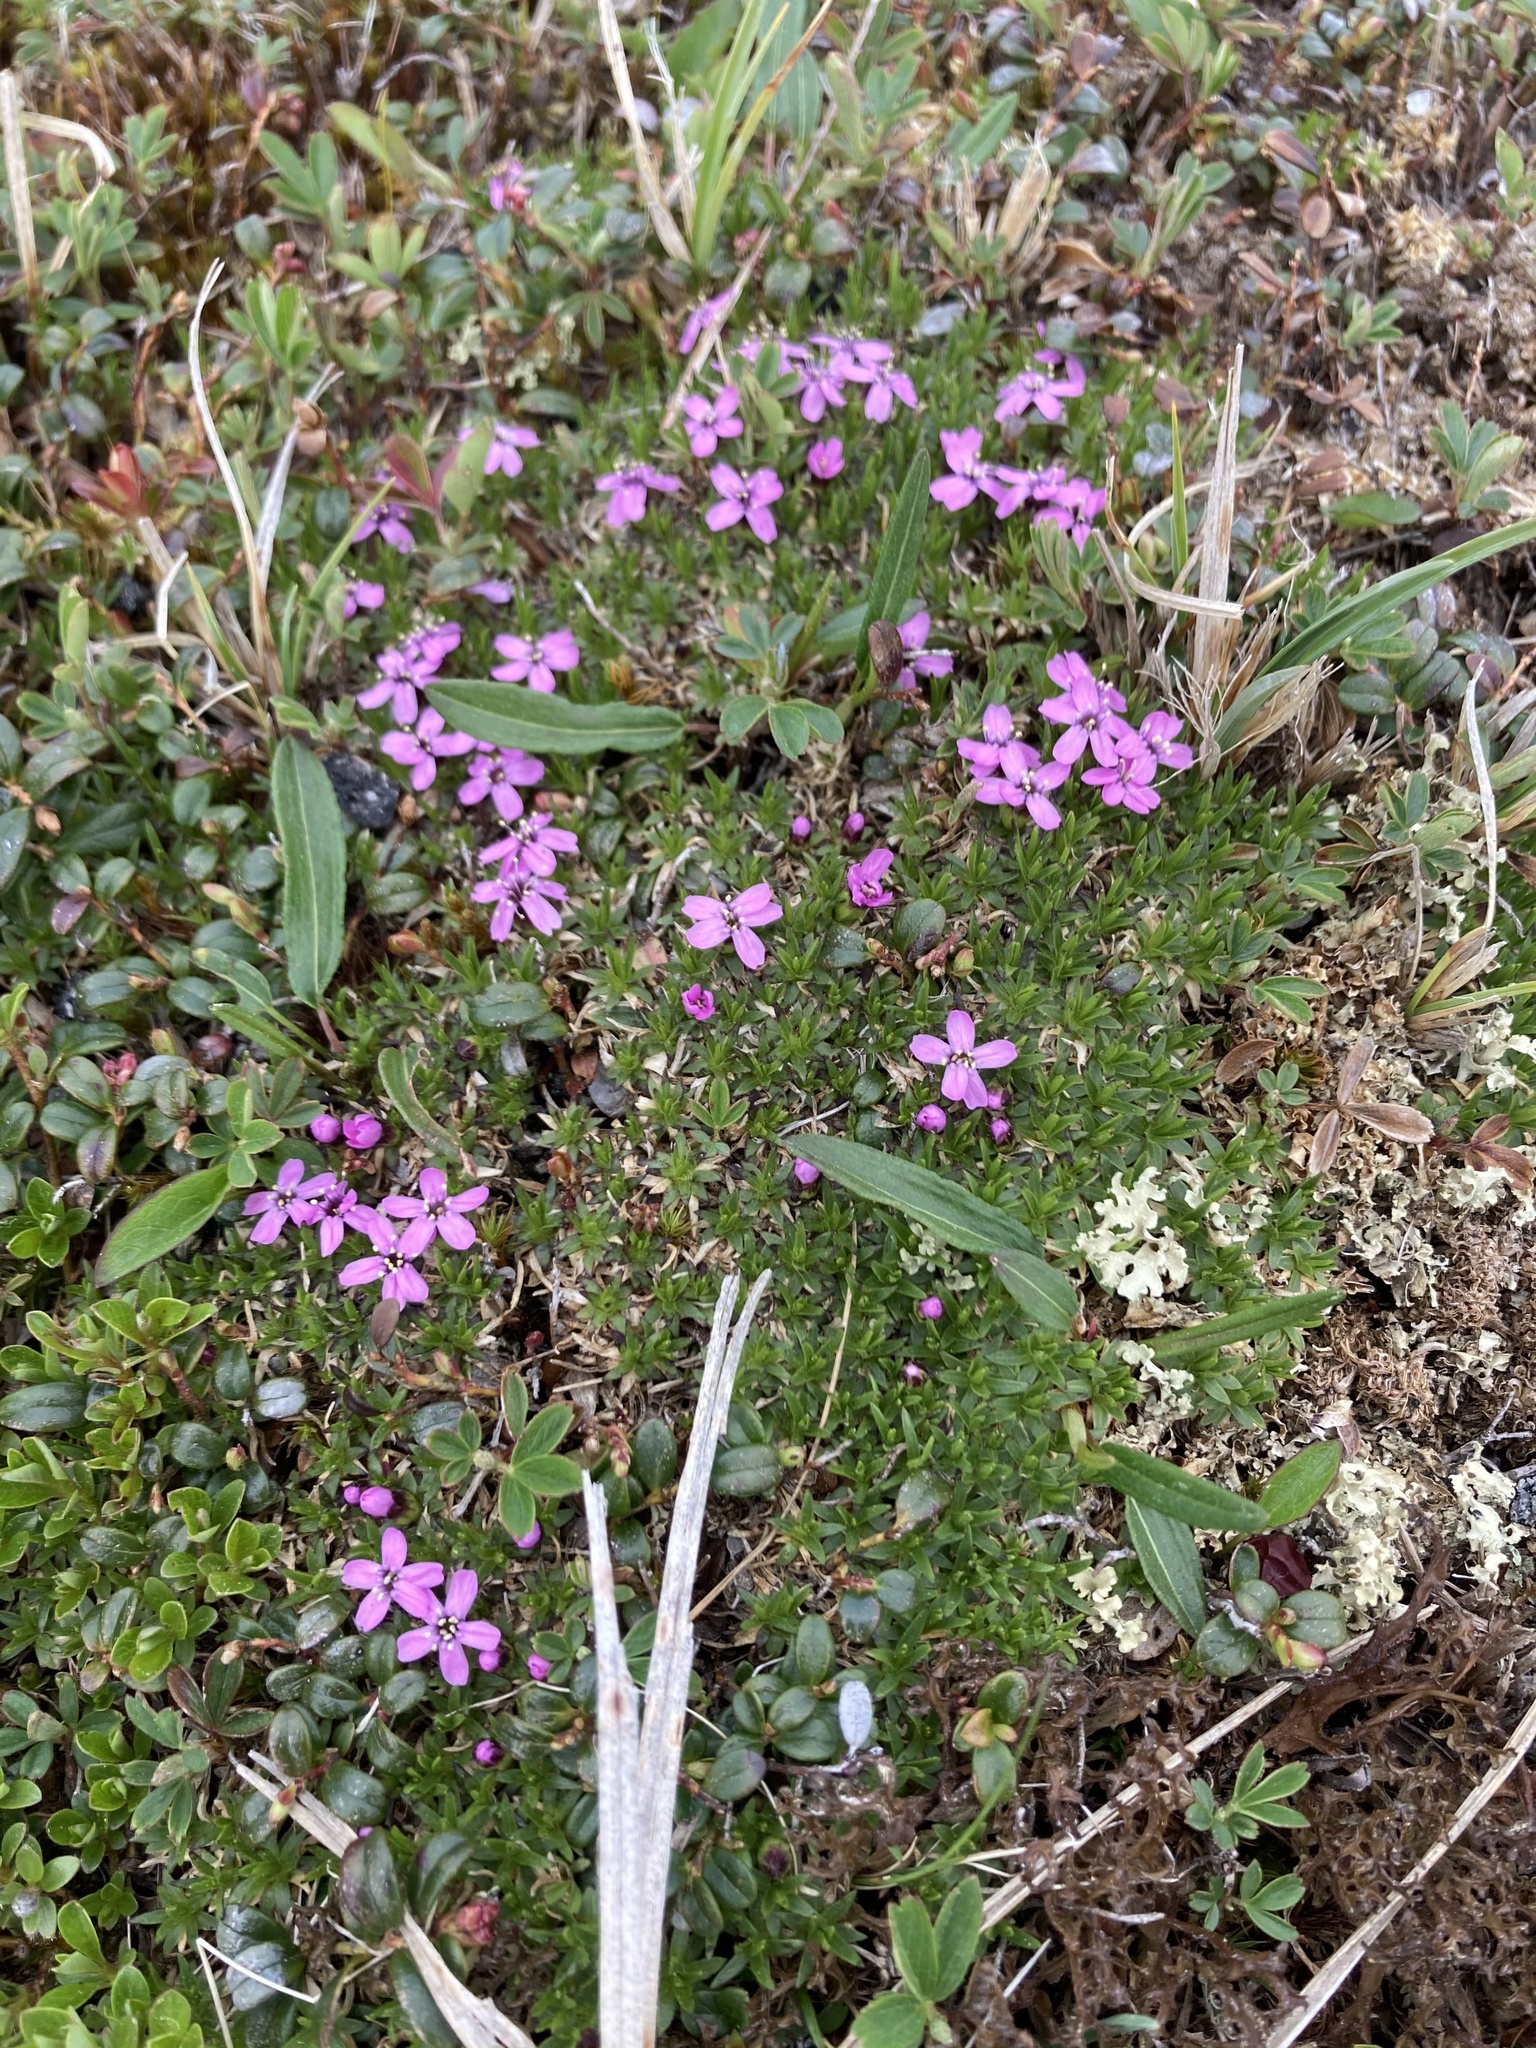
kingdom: Plantae
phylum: Tracheophyta
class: Magnoliopsida
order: Caryophyllales
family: Caryophyllaceae
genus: Silene
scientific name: Silene acaulis
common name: Moss campion
